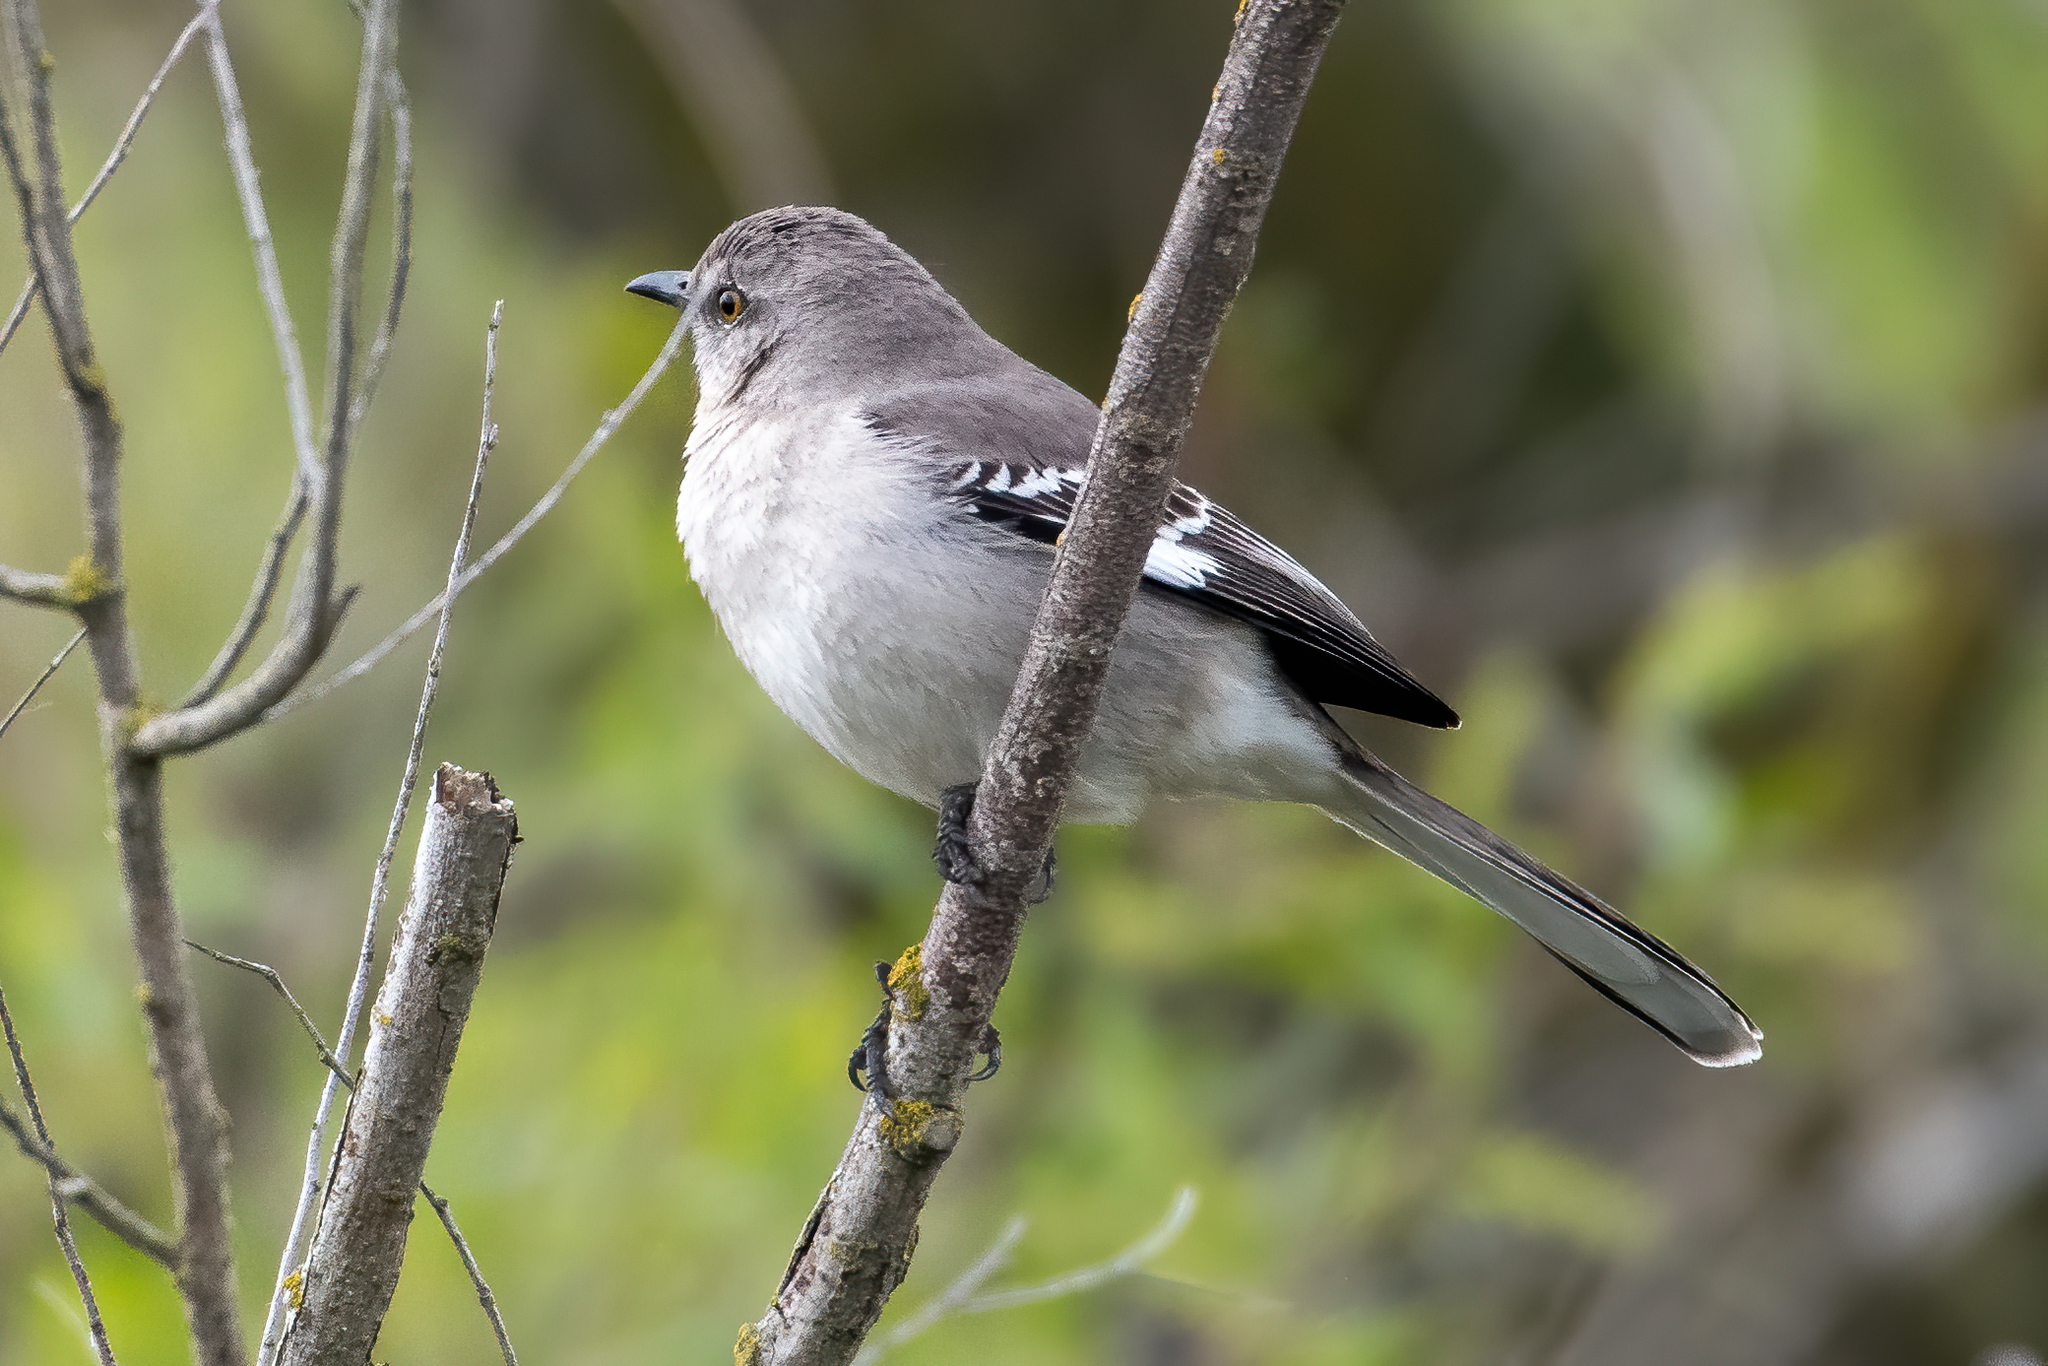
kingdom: Animalia
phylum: Chordata
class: Aves
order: Passeriformes
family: Mimidae
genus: Mimus
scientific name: Mimus polyglottos
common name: Northern mockingbird
